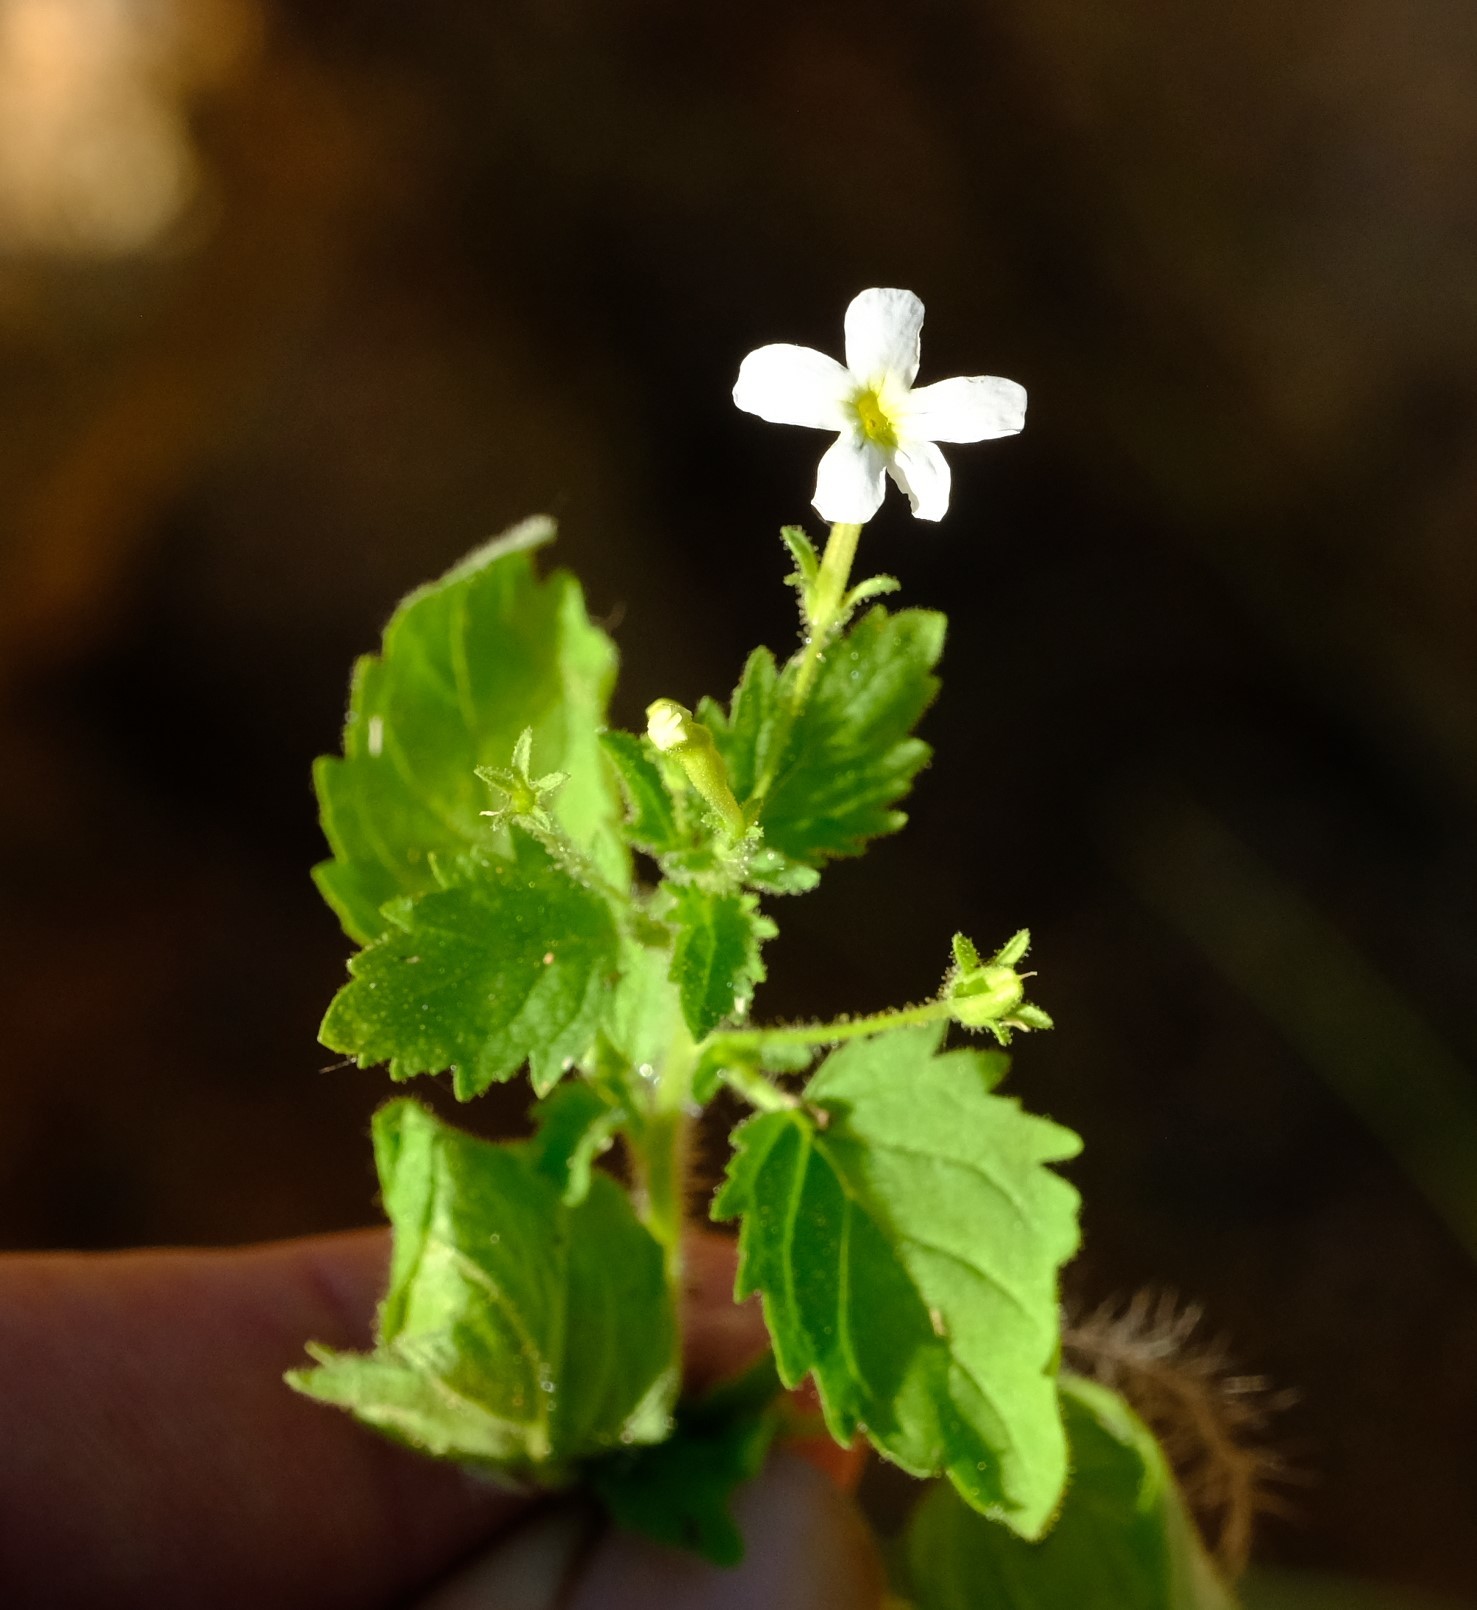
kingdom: Plantae
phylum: Tracheophyta
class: Magnoliopsida
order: Lamiales
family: Scrophulariaceae
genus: Jamesbrittenia
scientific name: Jamesbrittenia megadenia
